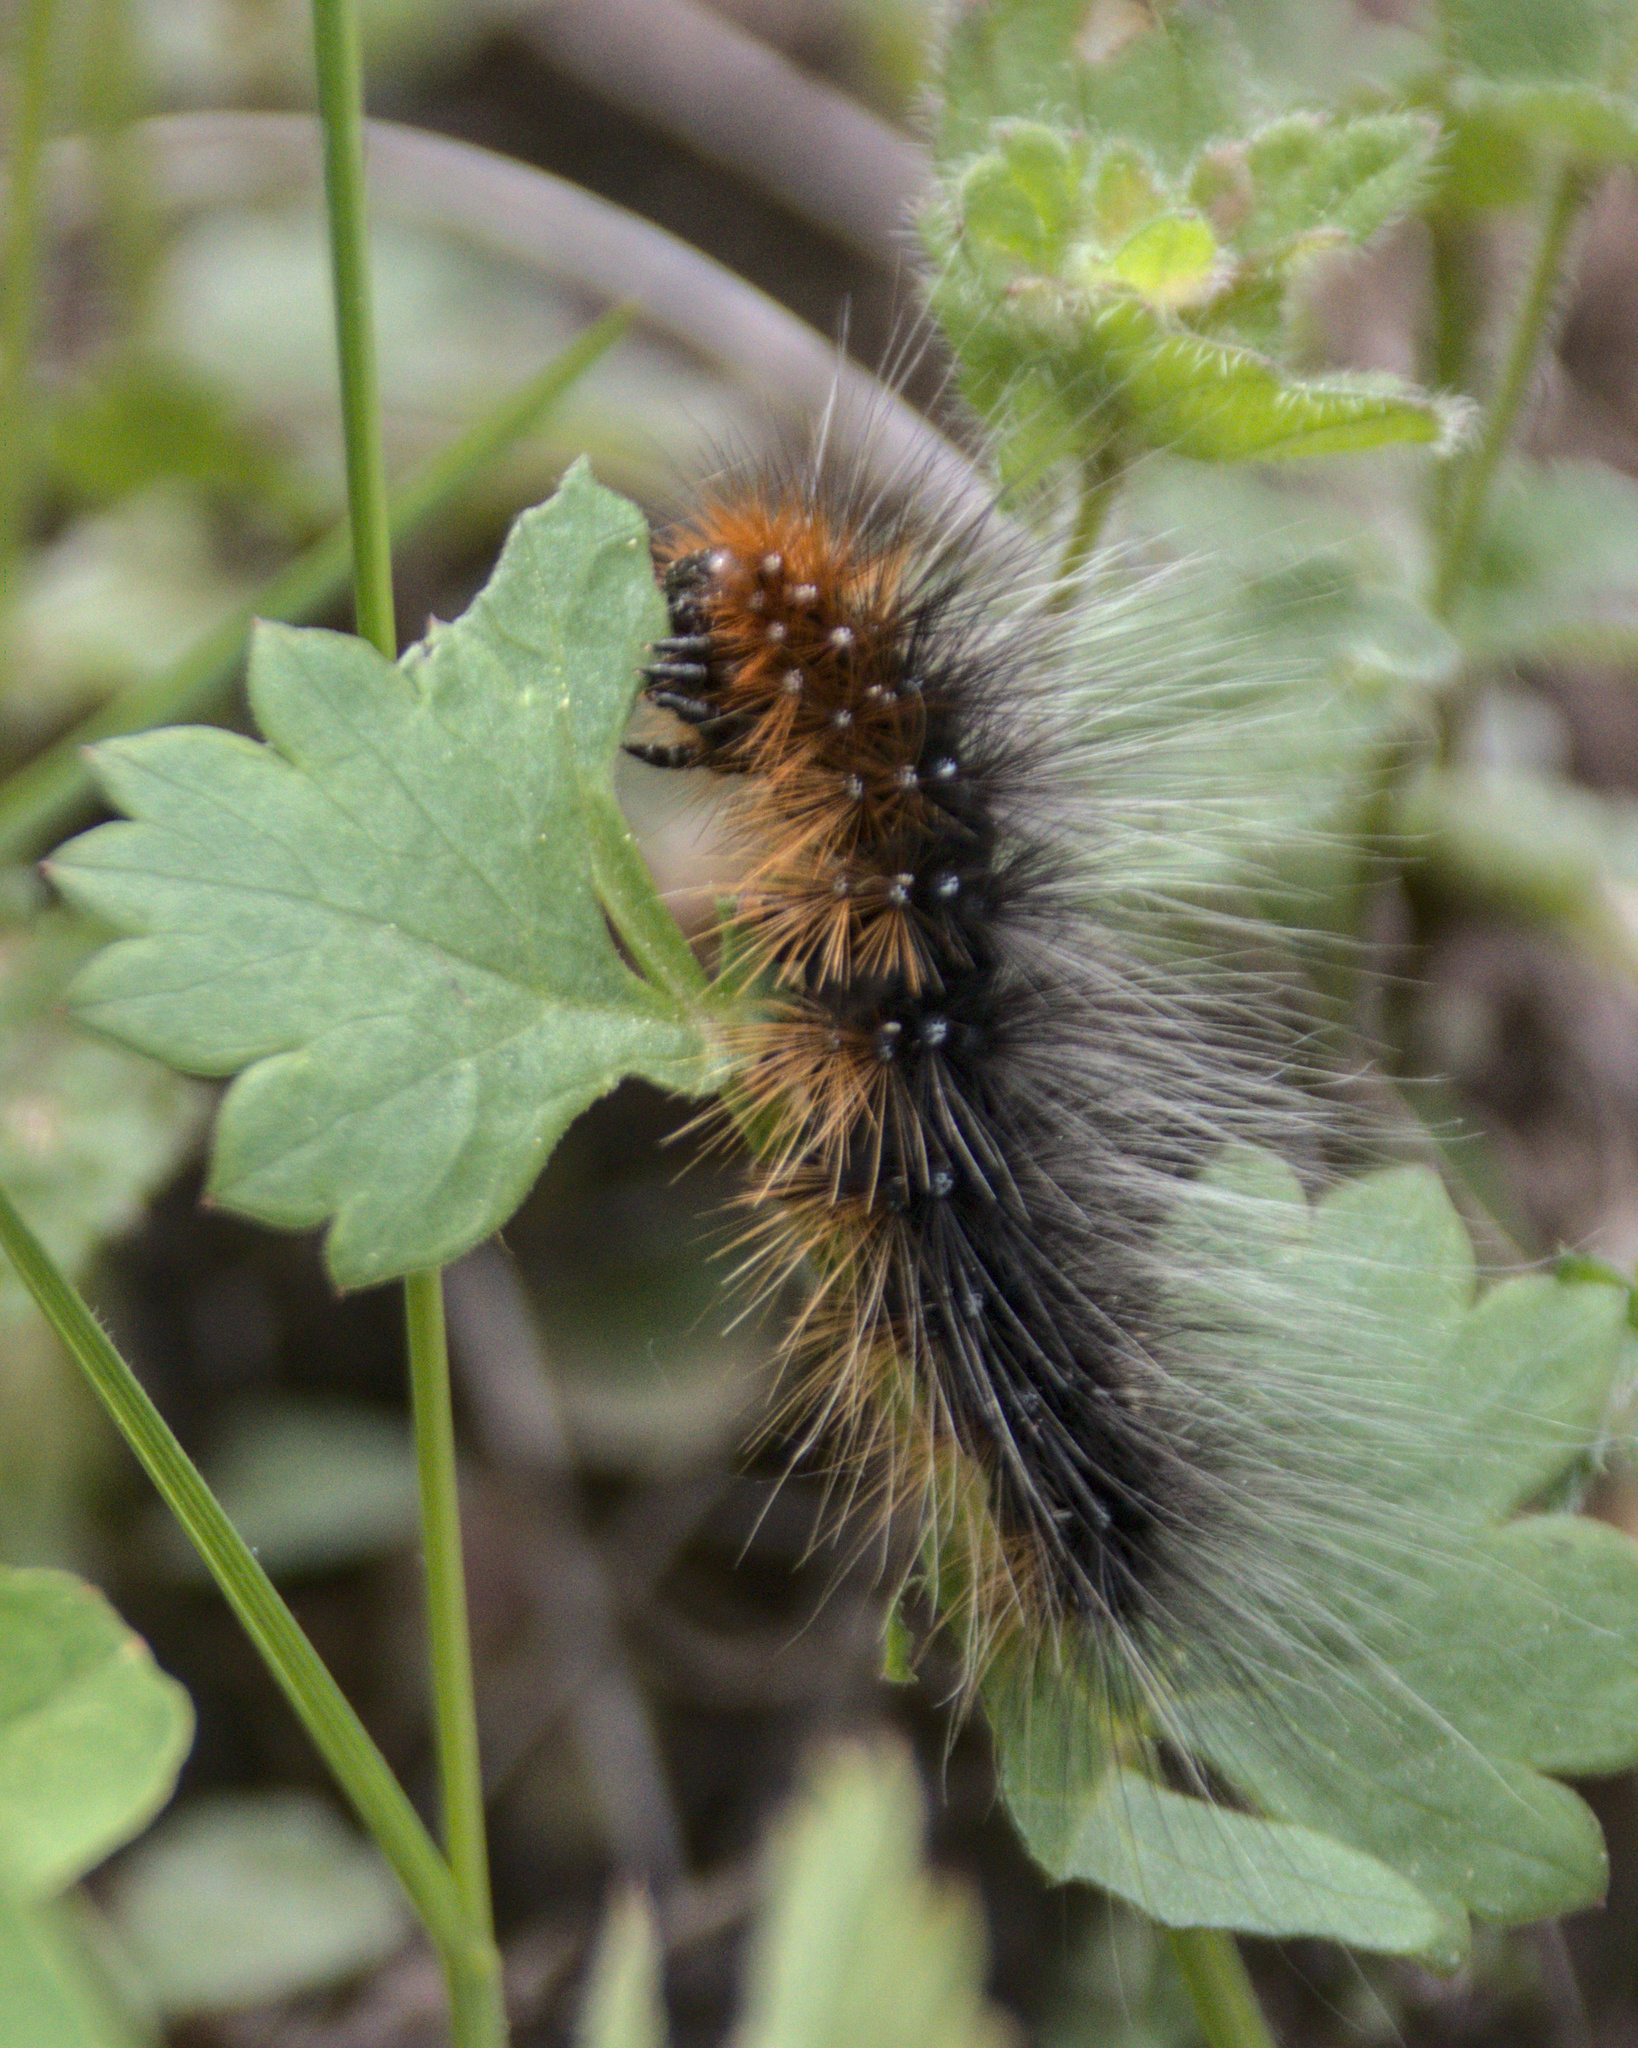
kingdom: Animalia
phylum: Arthropoda
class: Insecta
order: Lepidoptera
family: Erebidae
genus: Arctia
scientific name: Arctia caja
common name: Garden tiger
